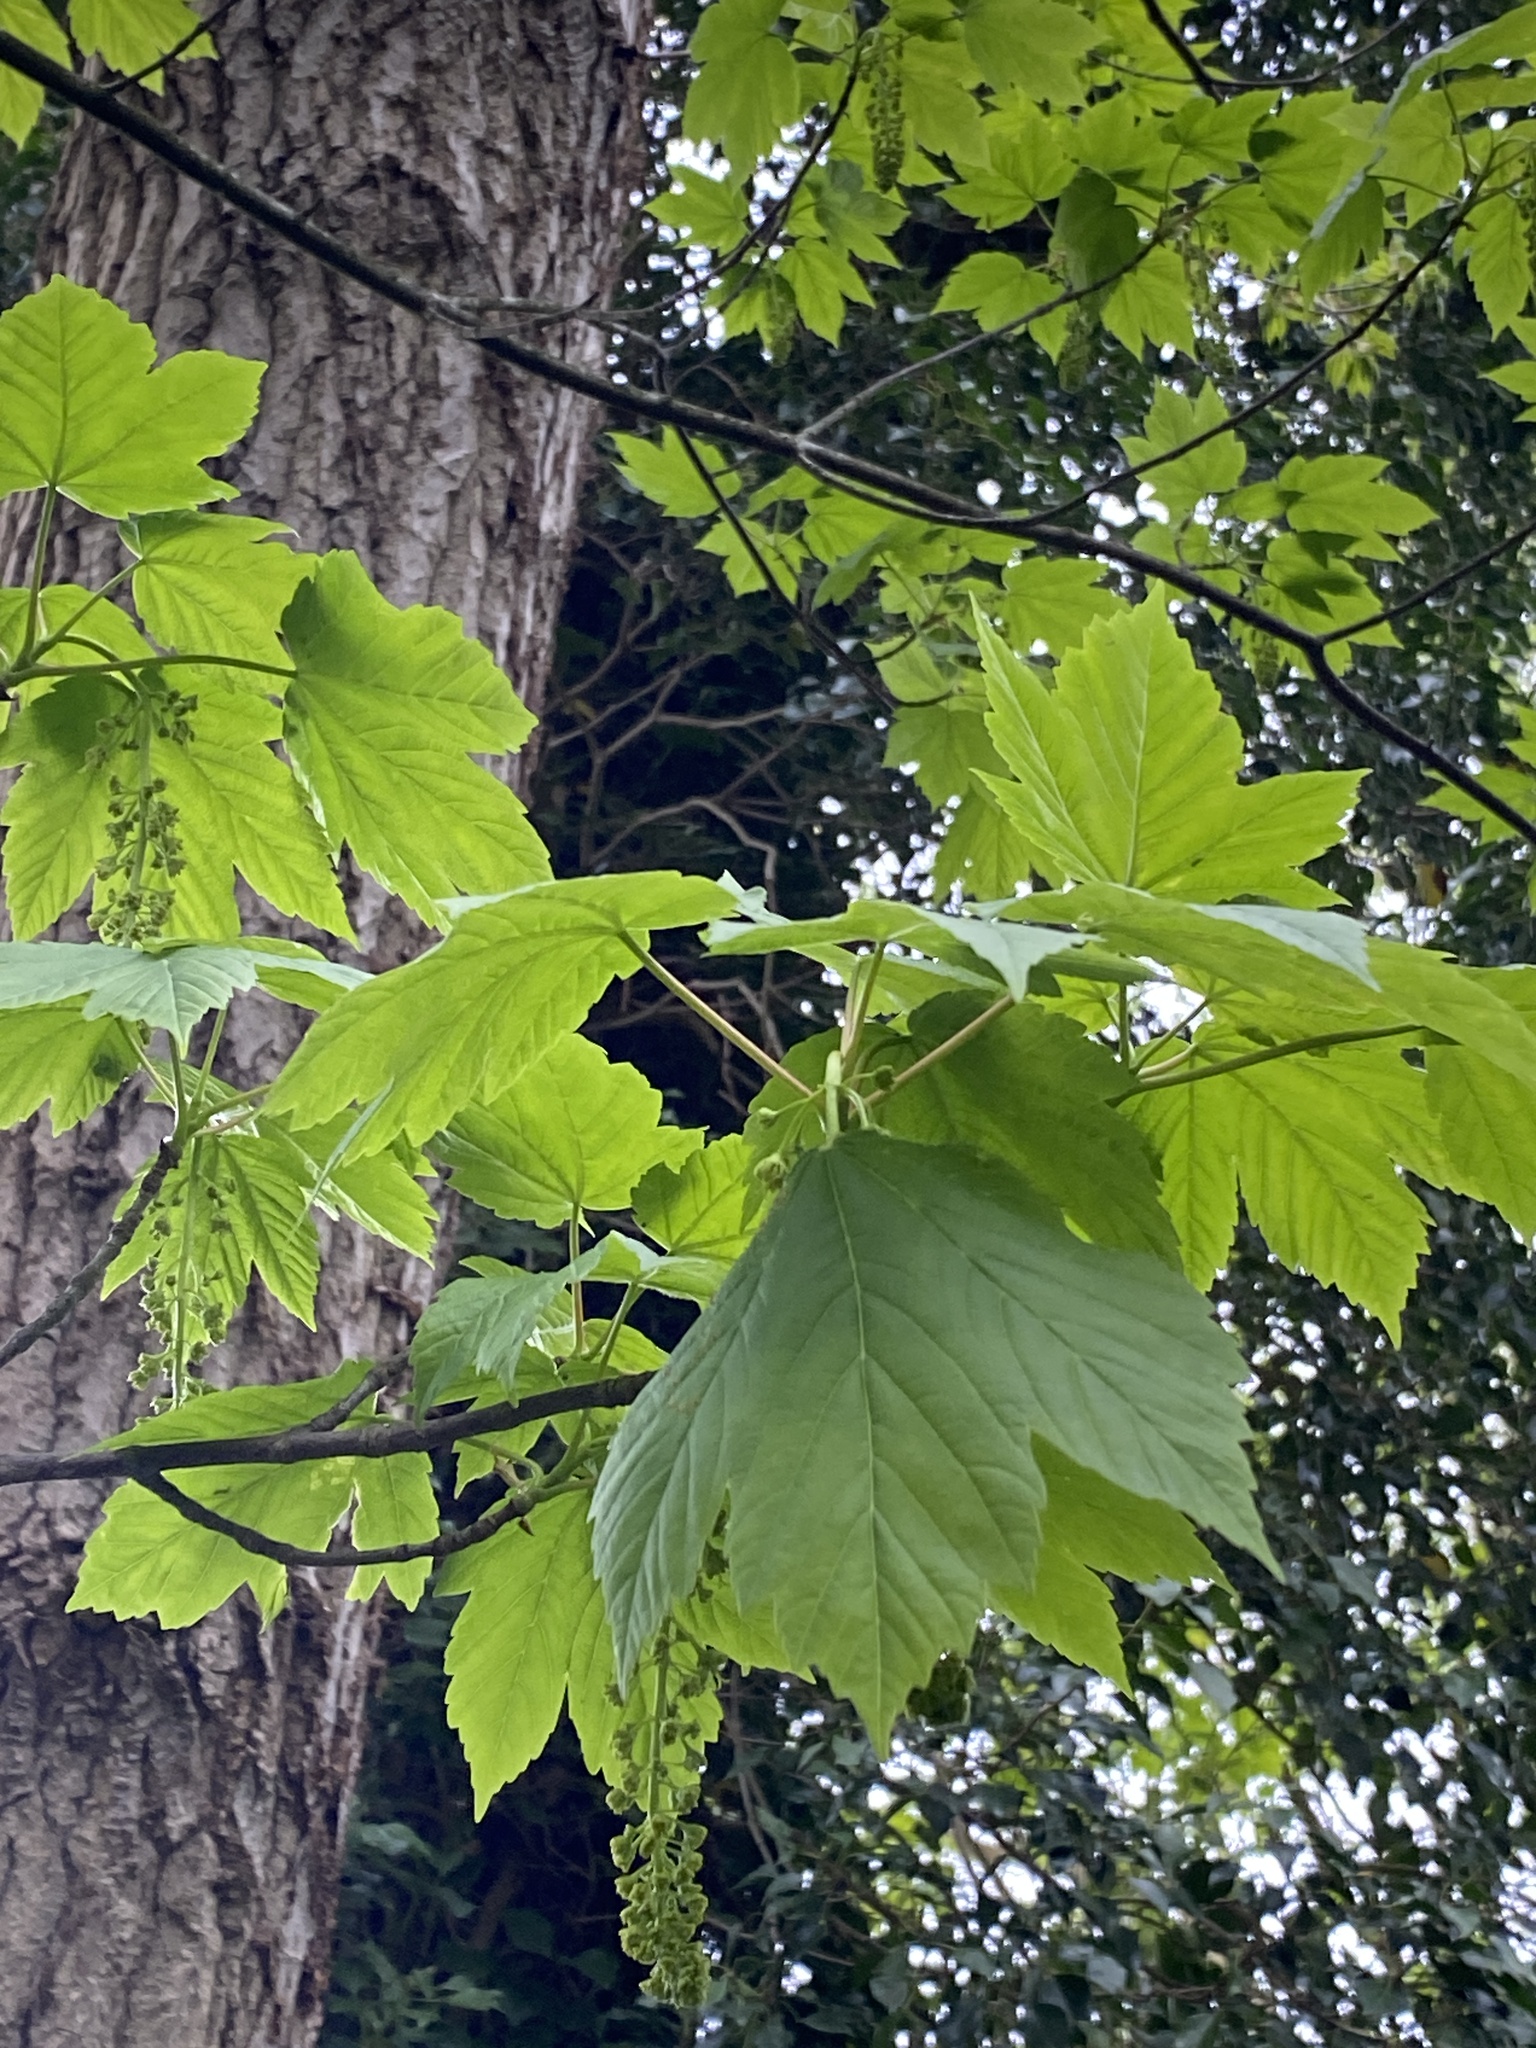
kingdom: Plantae
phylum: Tracheophyta
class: Magnoliopsida
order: Sapindales
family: Sapindaceae
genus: Acer
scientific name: Acer pseudoplatanus
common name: Sycamore
